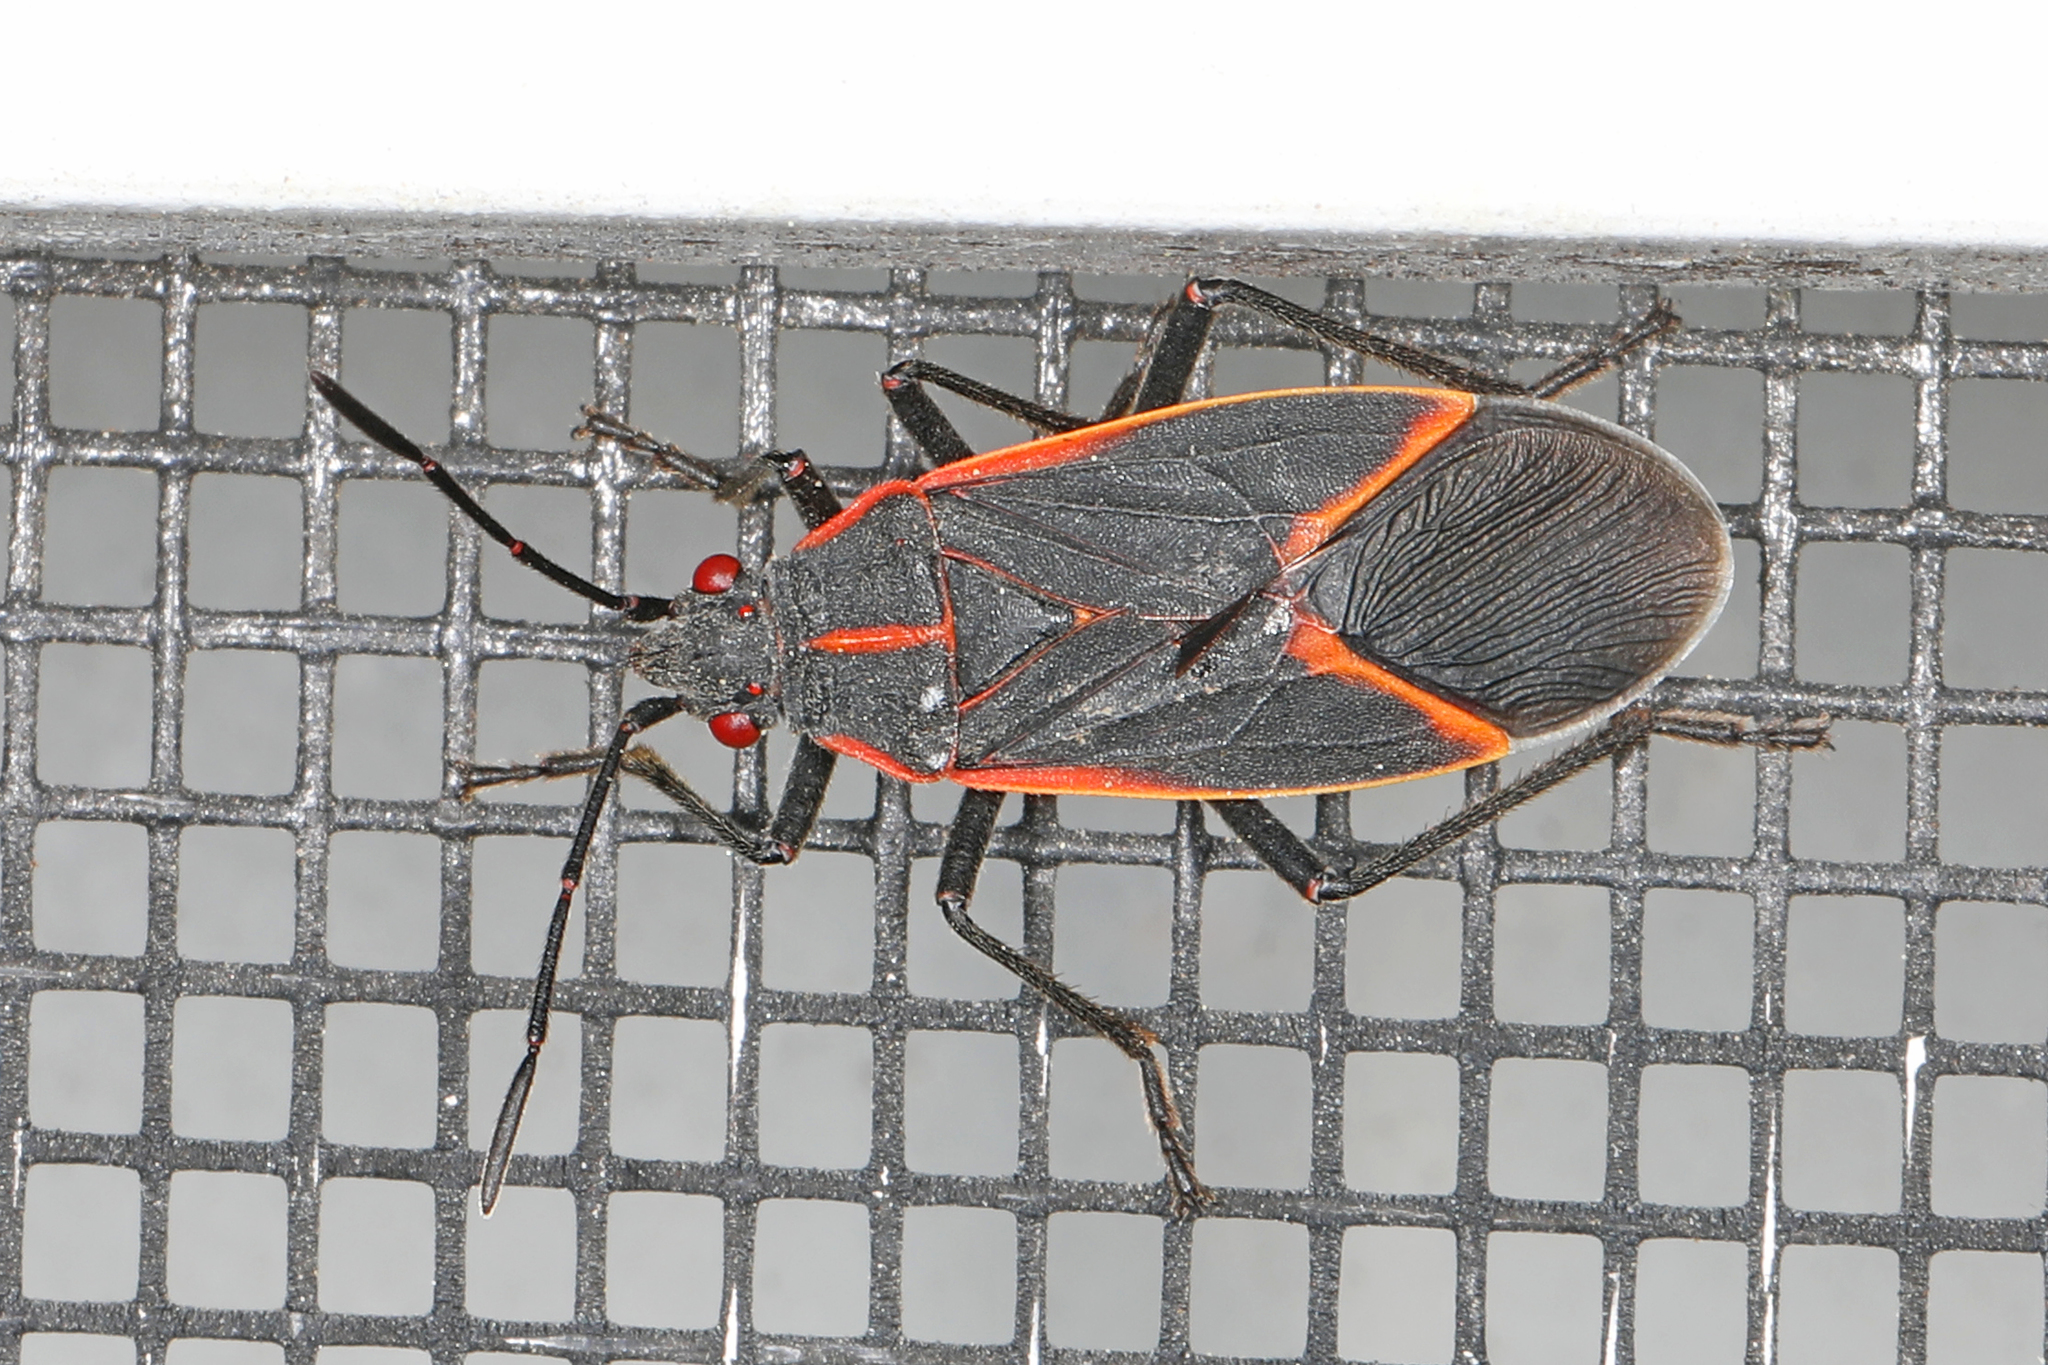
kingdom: Animalia
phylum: Arthropoda
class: Insecta
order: Hemiptera
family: Rhopalidae
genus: Boisea
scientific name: Boisea trivittata
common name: Boxelder bug
